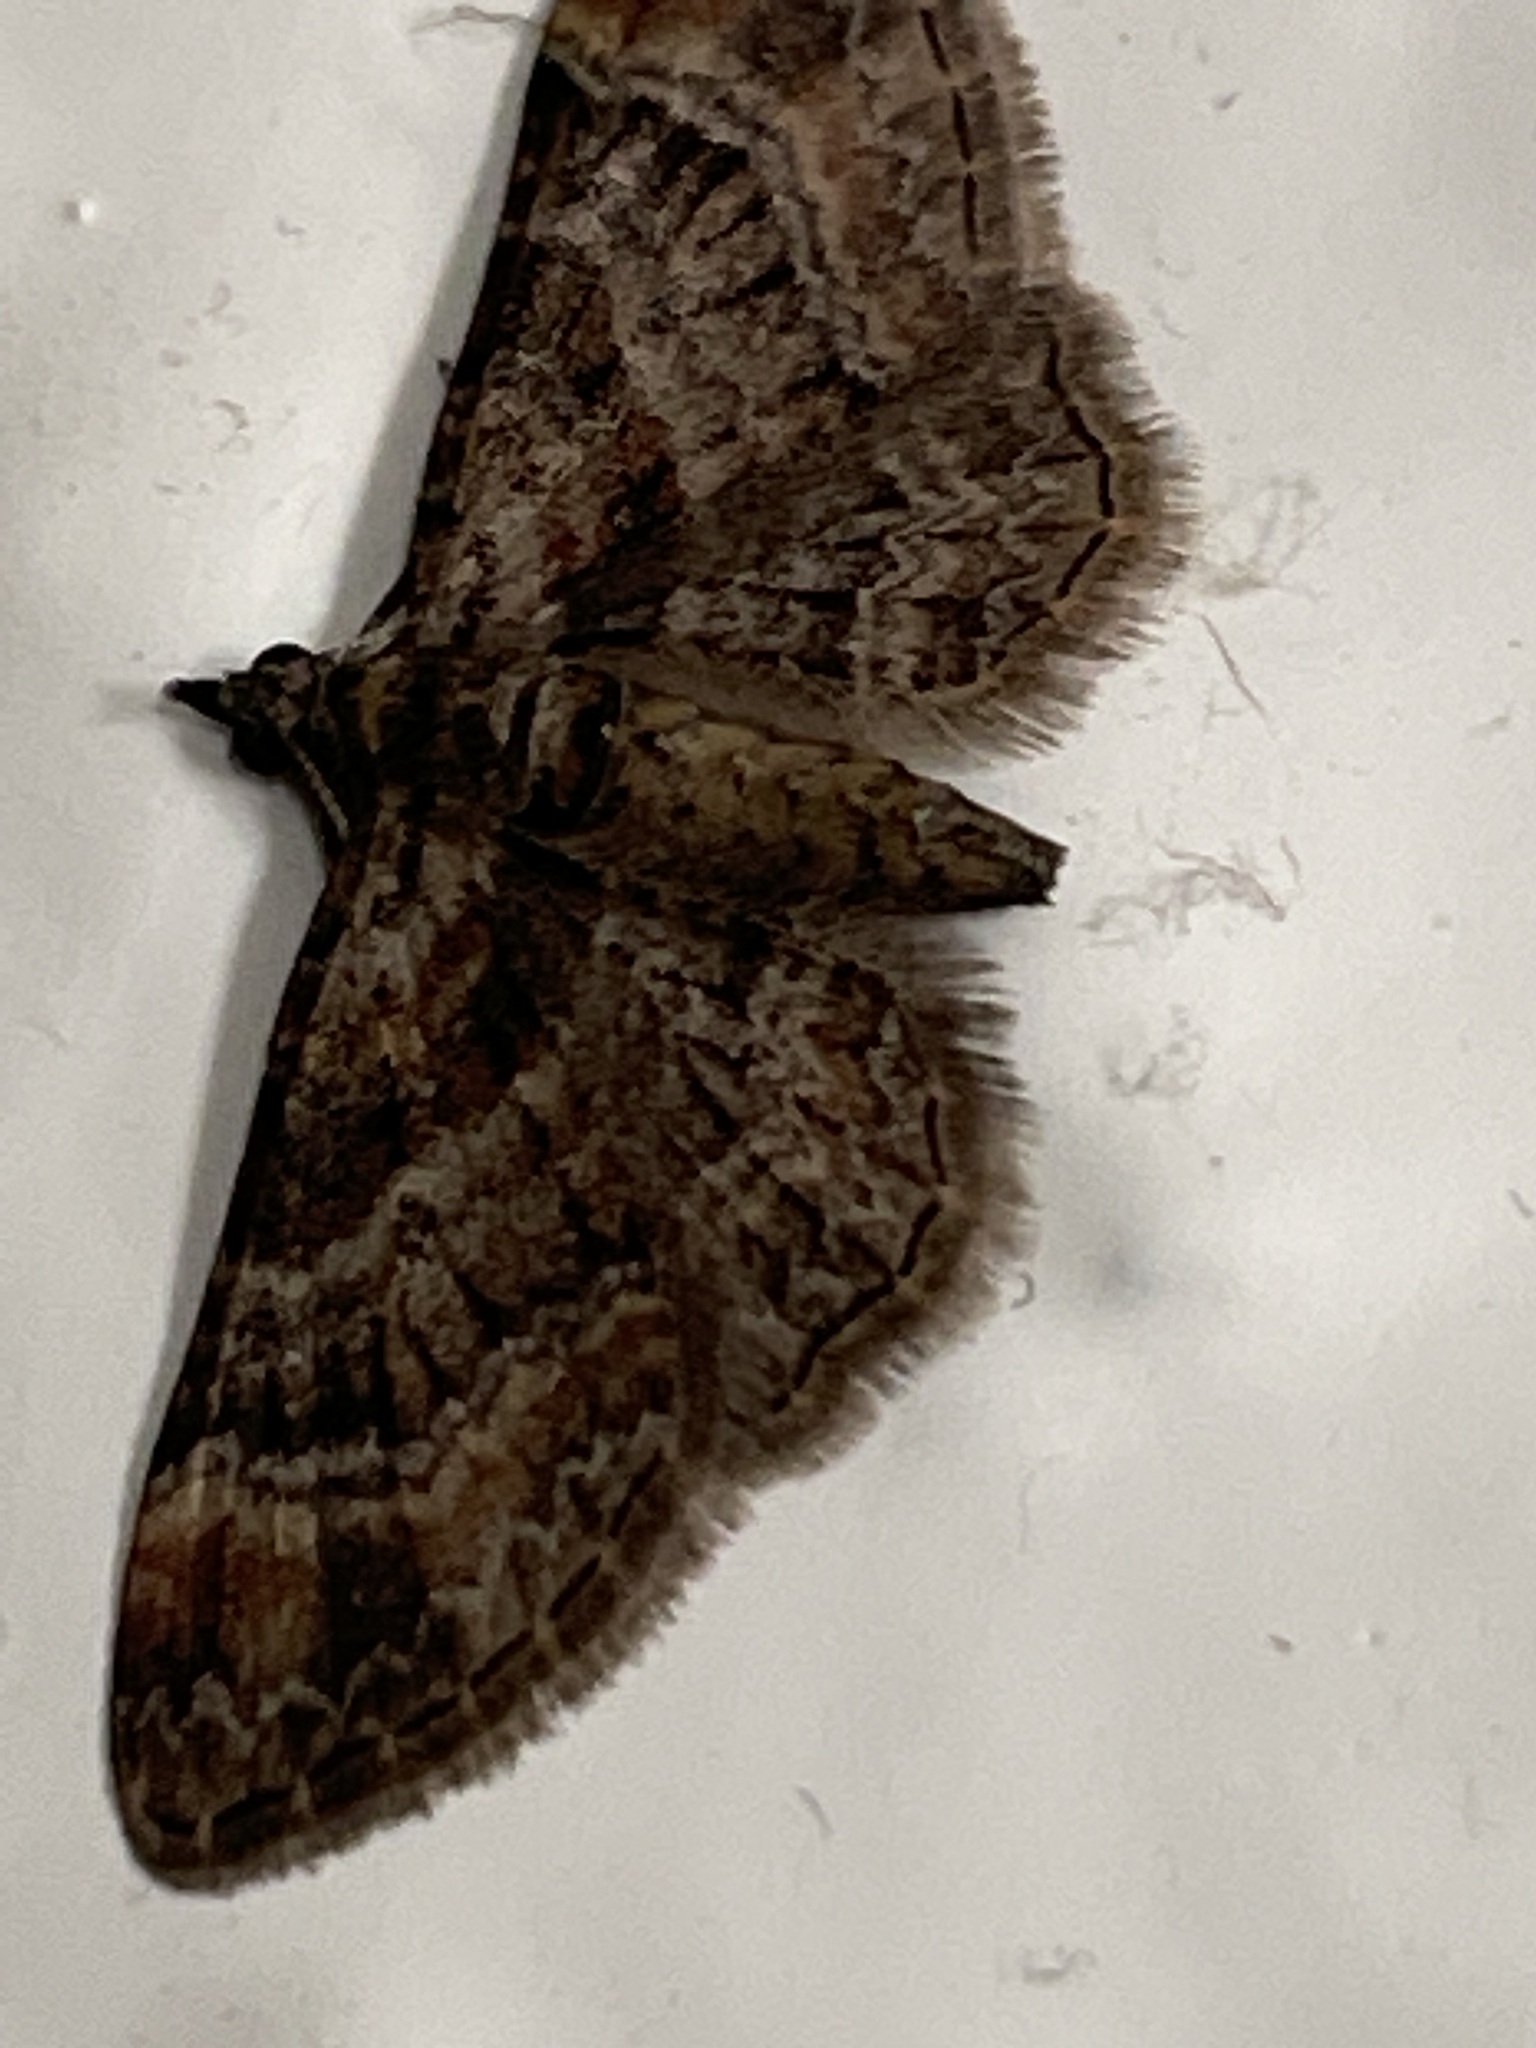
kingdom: Animalia
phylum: Arthropoda
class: Insecta
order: Lepidoptera
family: Geometridae
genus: Gymnoscelis
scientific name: Gymnoscelis rufifasciata
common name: Double-striped pug
